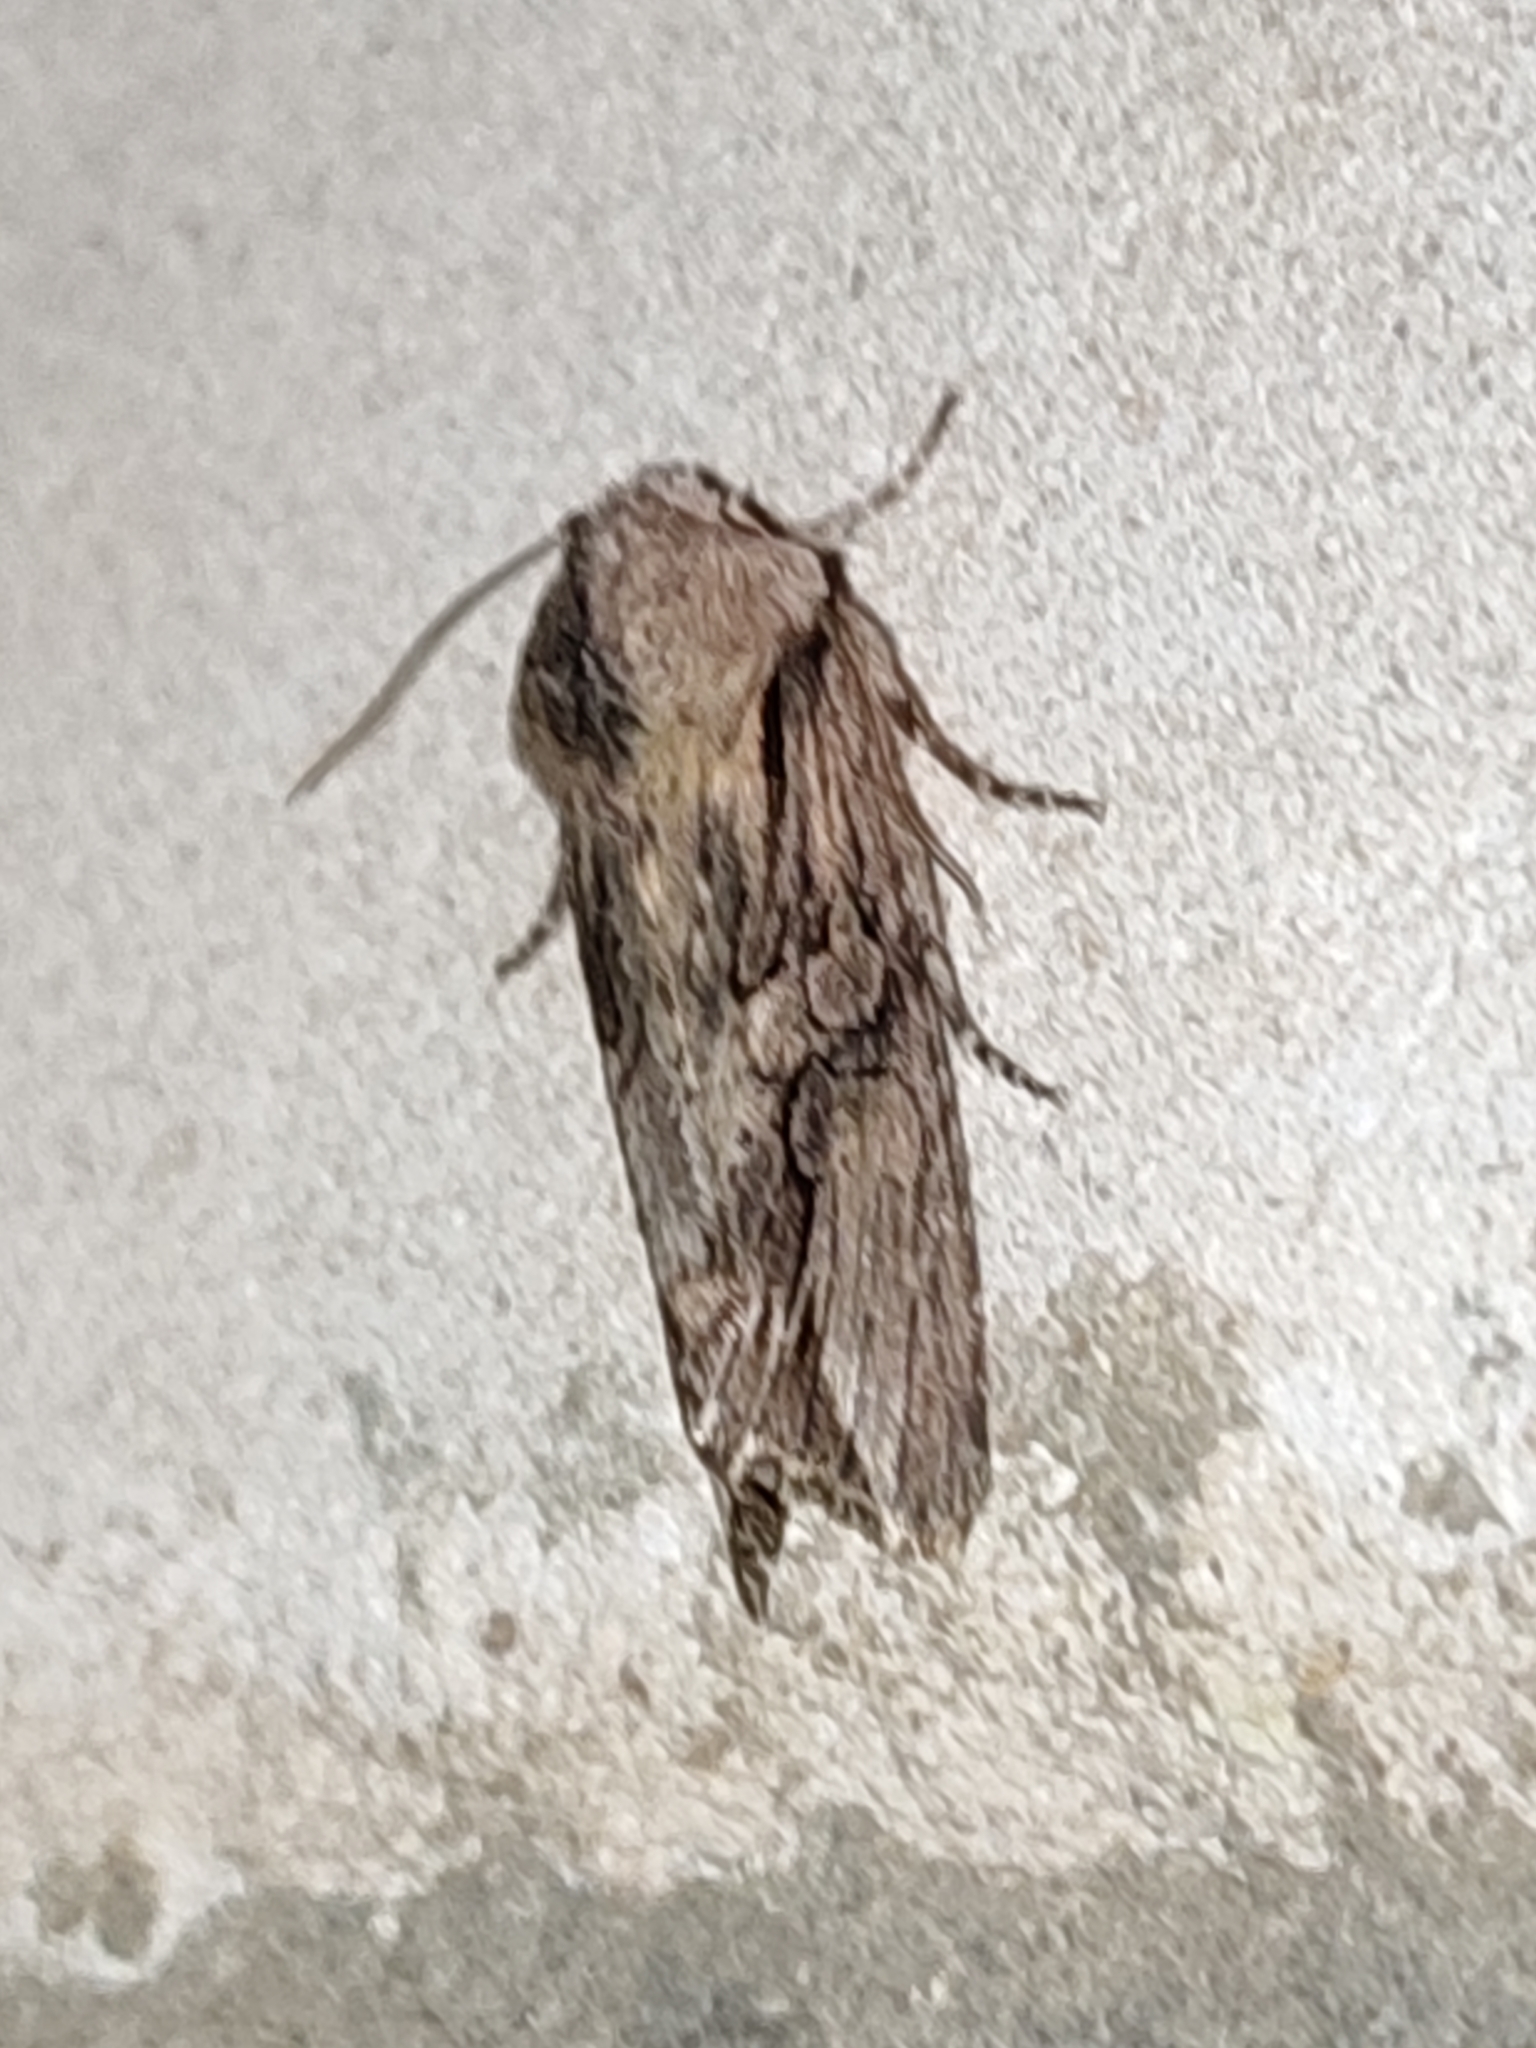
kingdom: Animalia
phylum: Arthropoda
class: Insecta
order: Lepidoptera
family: Noctuidae
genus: Egira
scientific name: Egira conspicillaris
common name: Silver cloud
